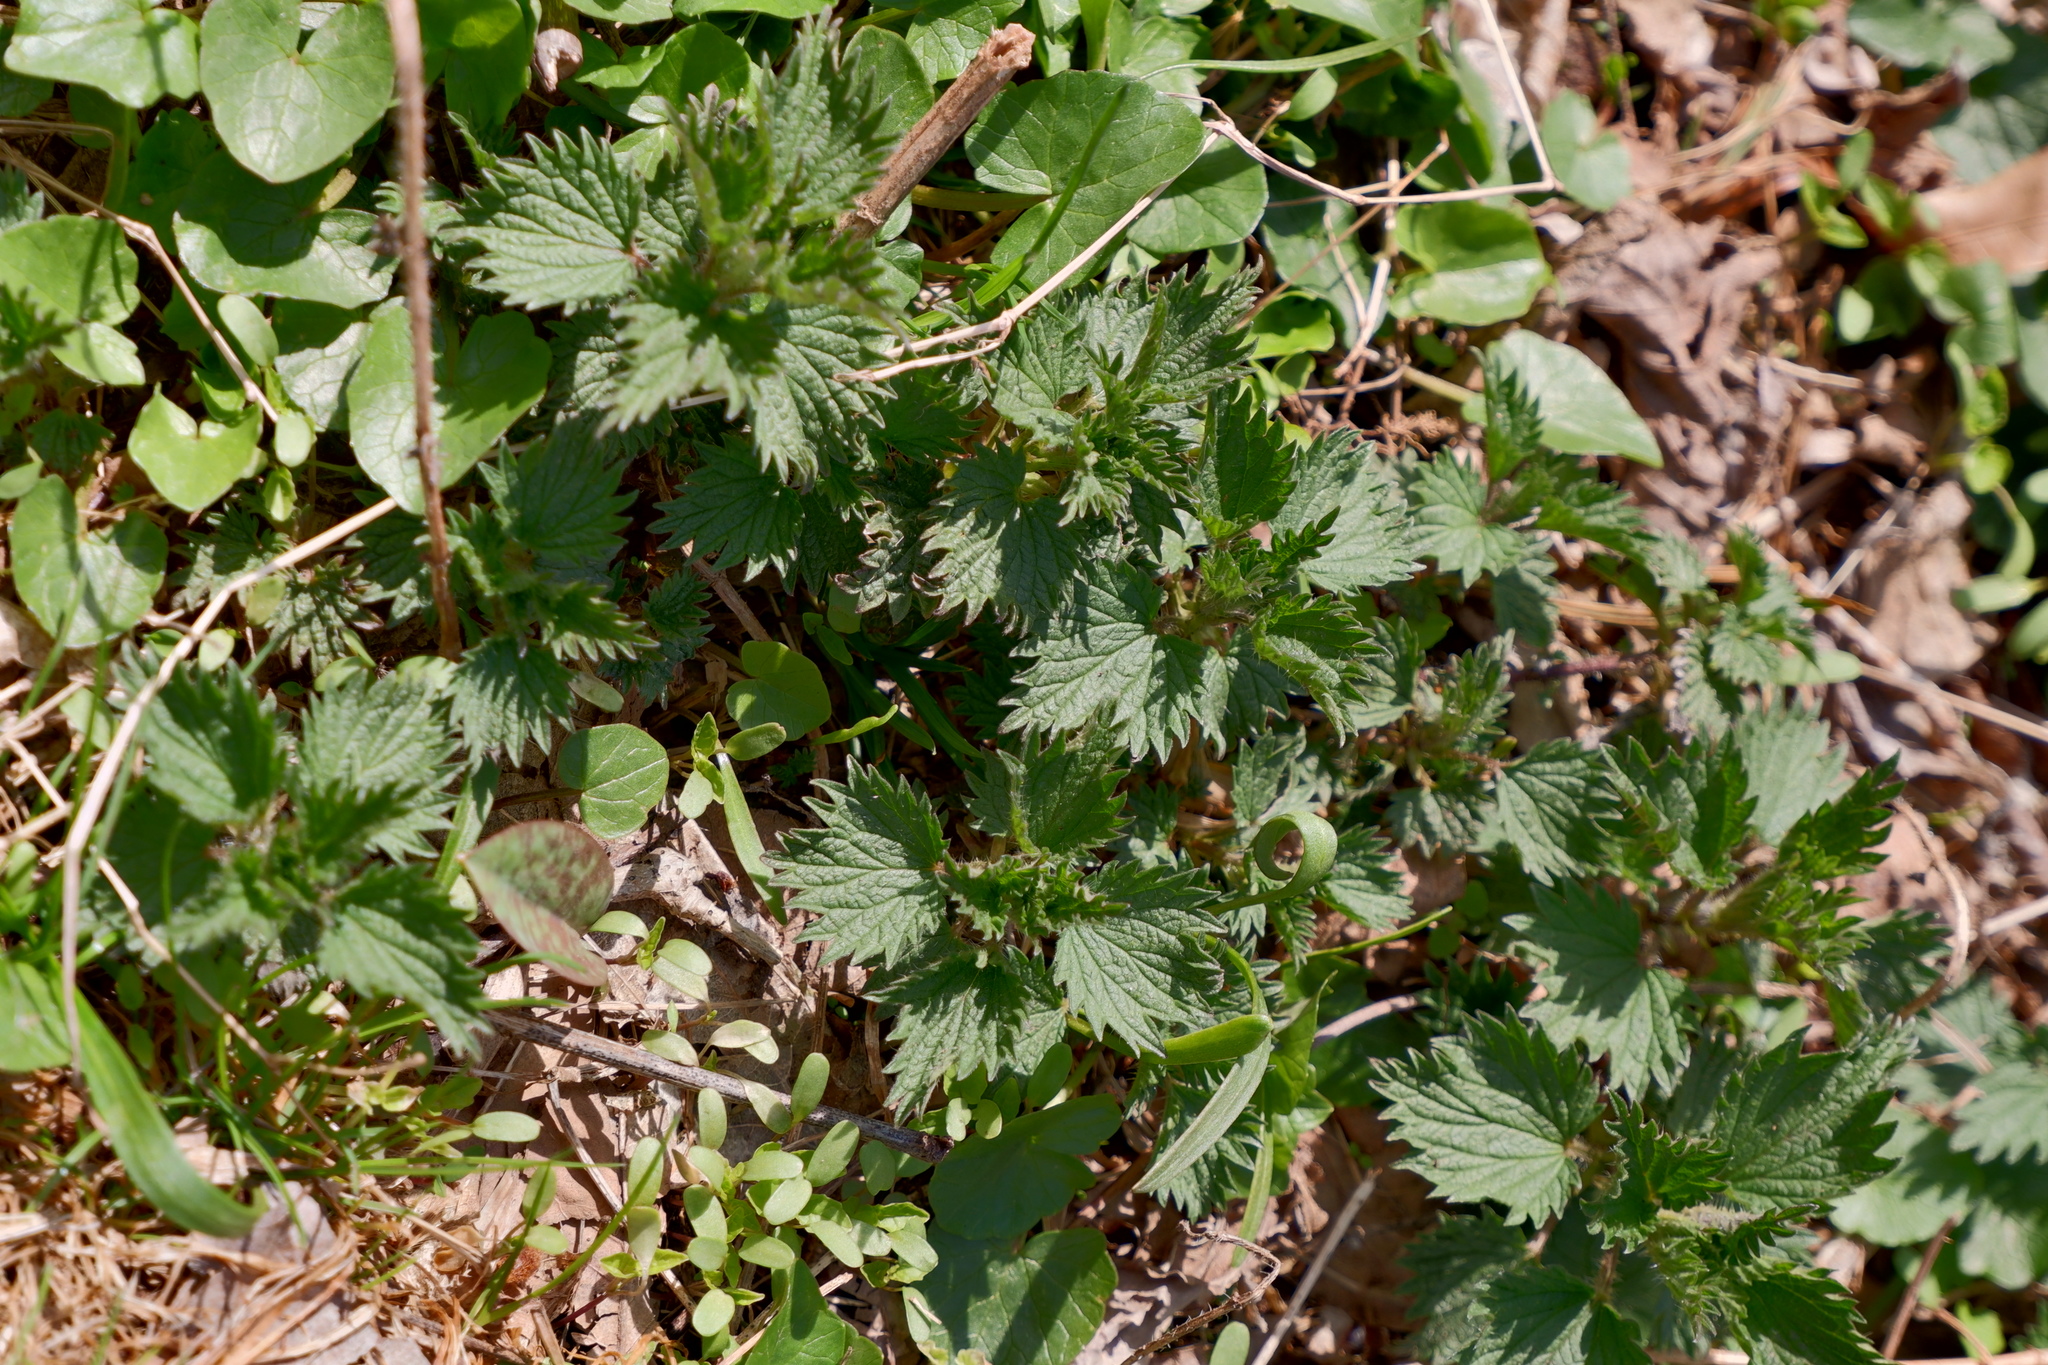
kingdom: Plantae
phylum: Tracheophyta
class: Magnoliopsida
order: Rosales
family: Urticaceae
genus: Urtica
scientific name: Urtica dioica
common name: Common nettle
